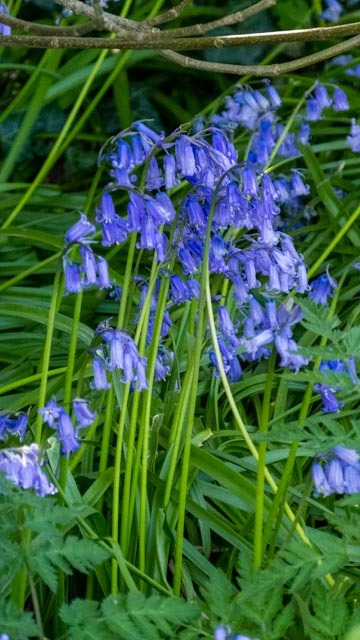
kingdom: Plantae
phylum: Tracheophyta
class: Liliopsida
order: Asparagales
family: Asparagaceae
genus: Hyacinthoides
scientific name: Hyacinthoides non-scripta
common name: Bluebell
